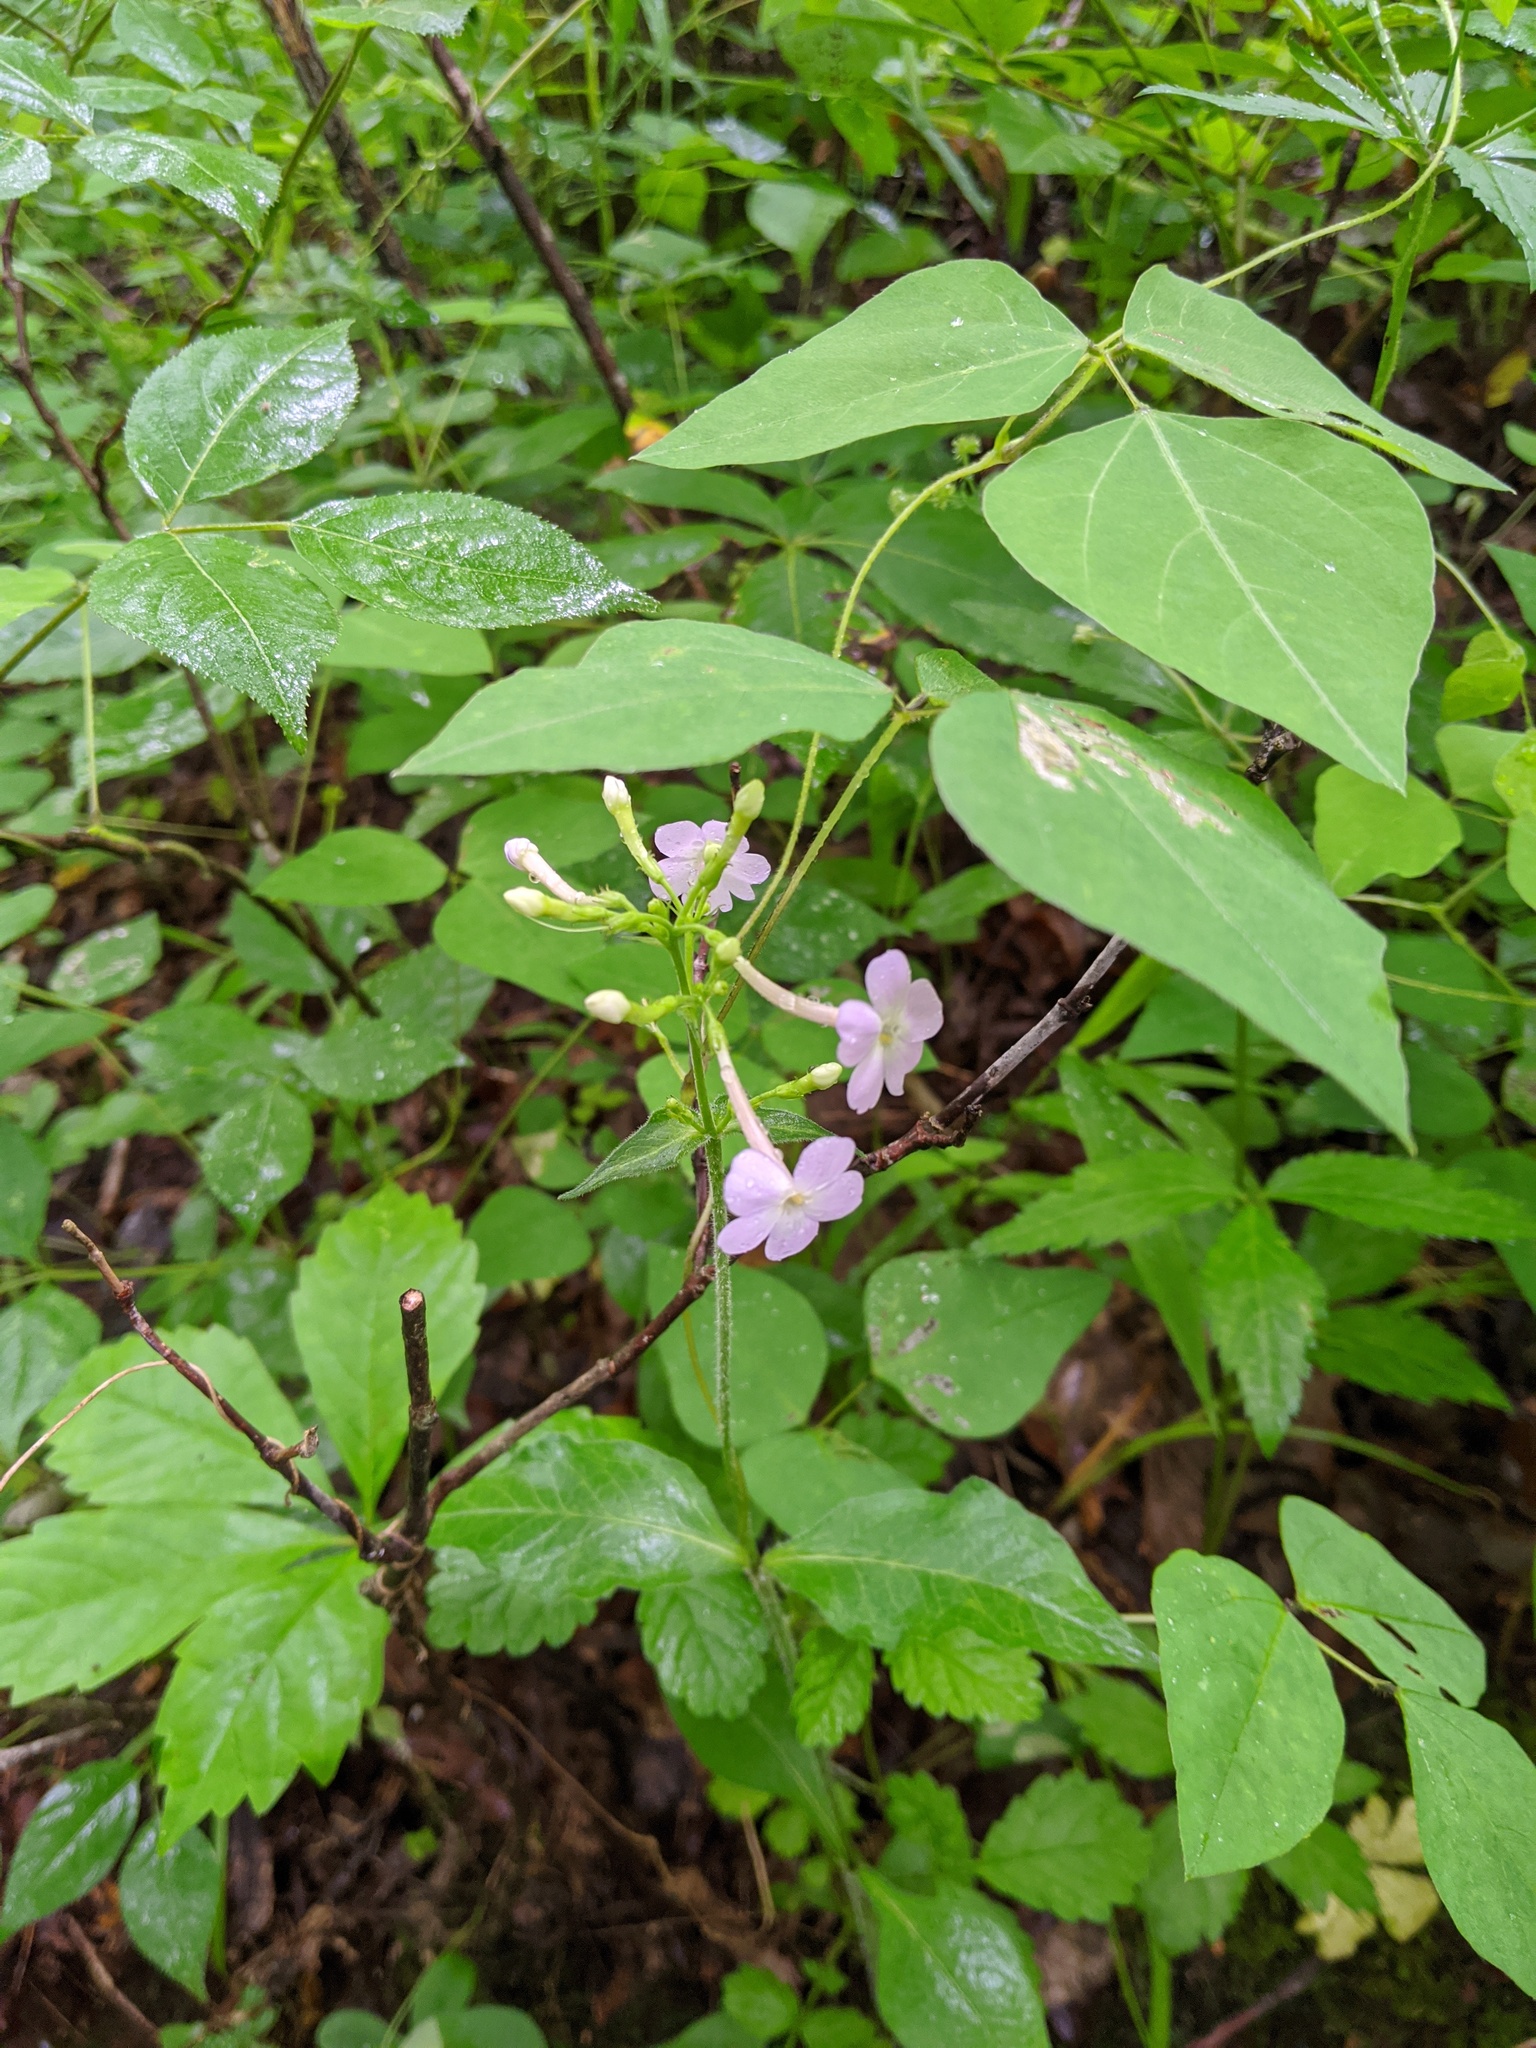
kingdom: Plantae
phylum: Tracheophyta
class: Magnoliopsida
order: Ericales
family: Polemoniaceae
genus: Phlox
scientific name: Phlox amplifolia
